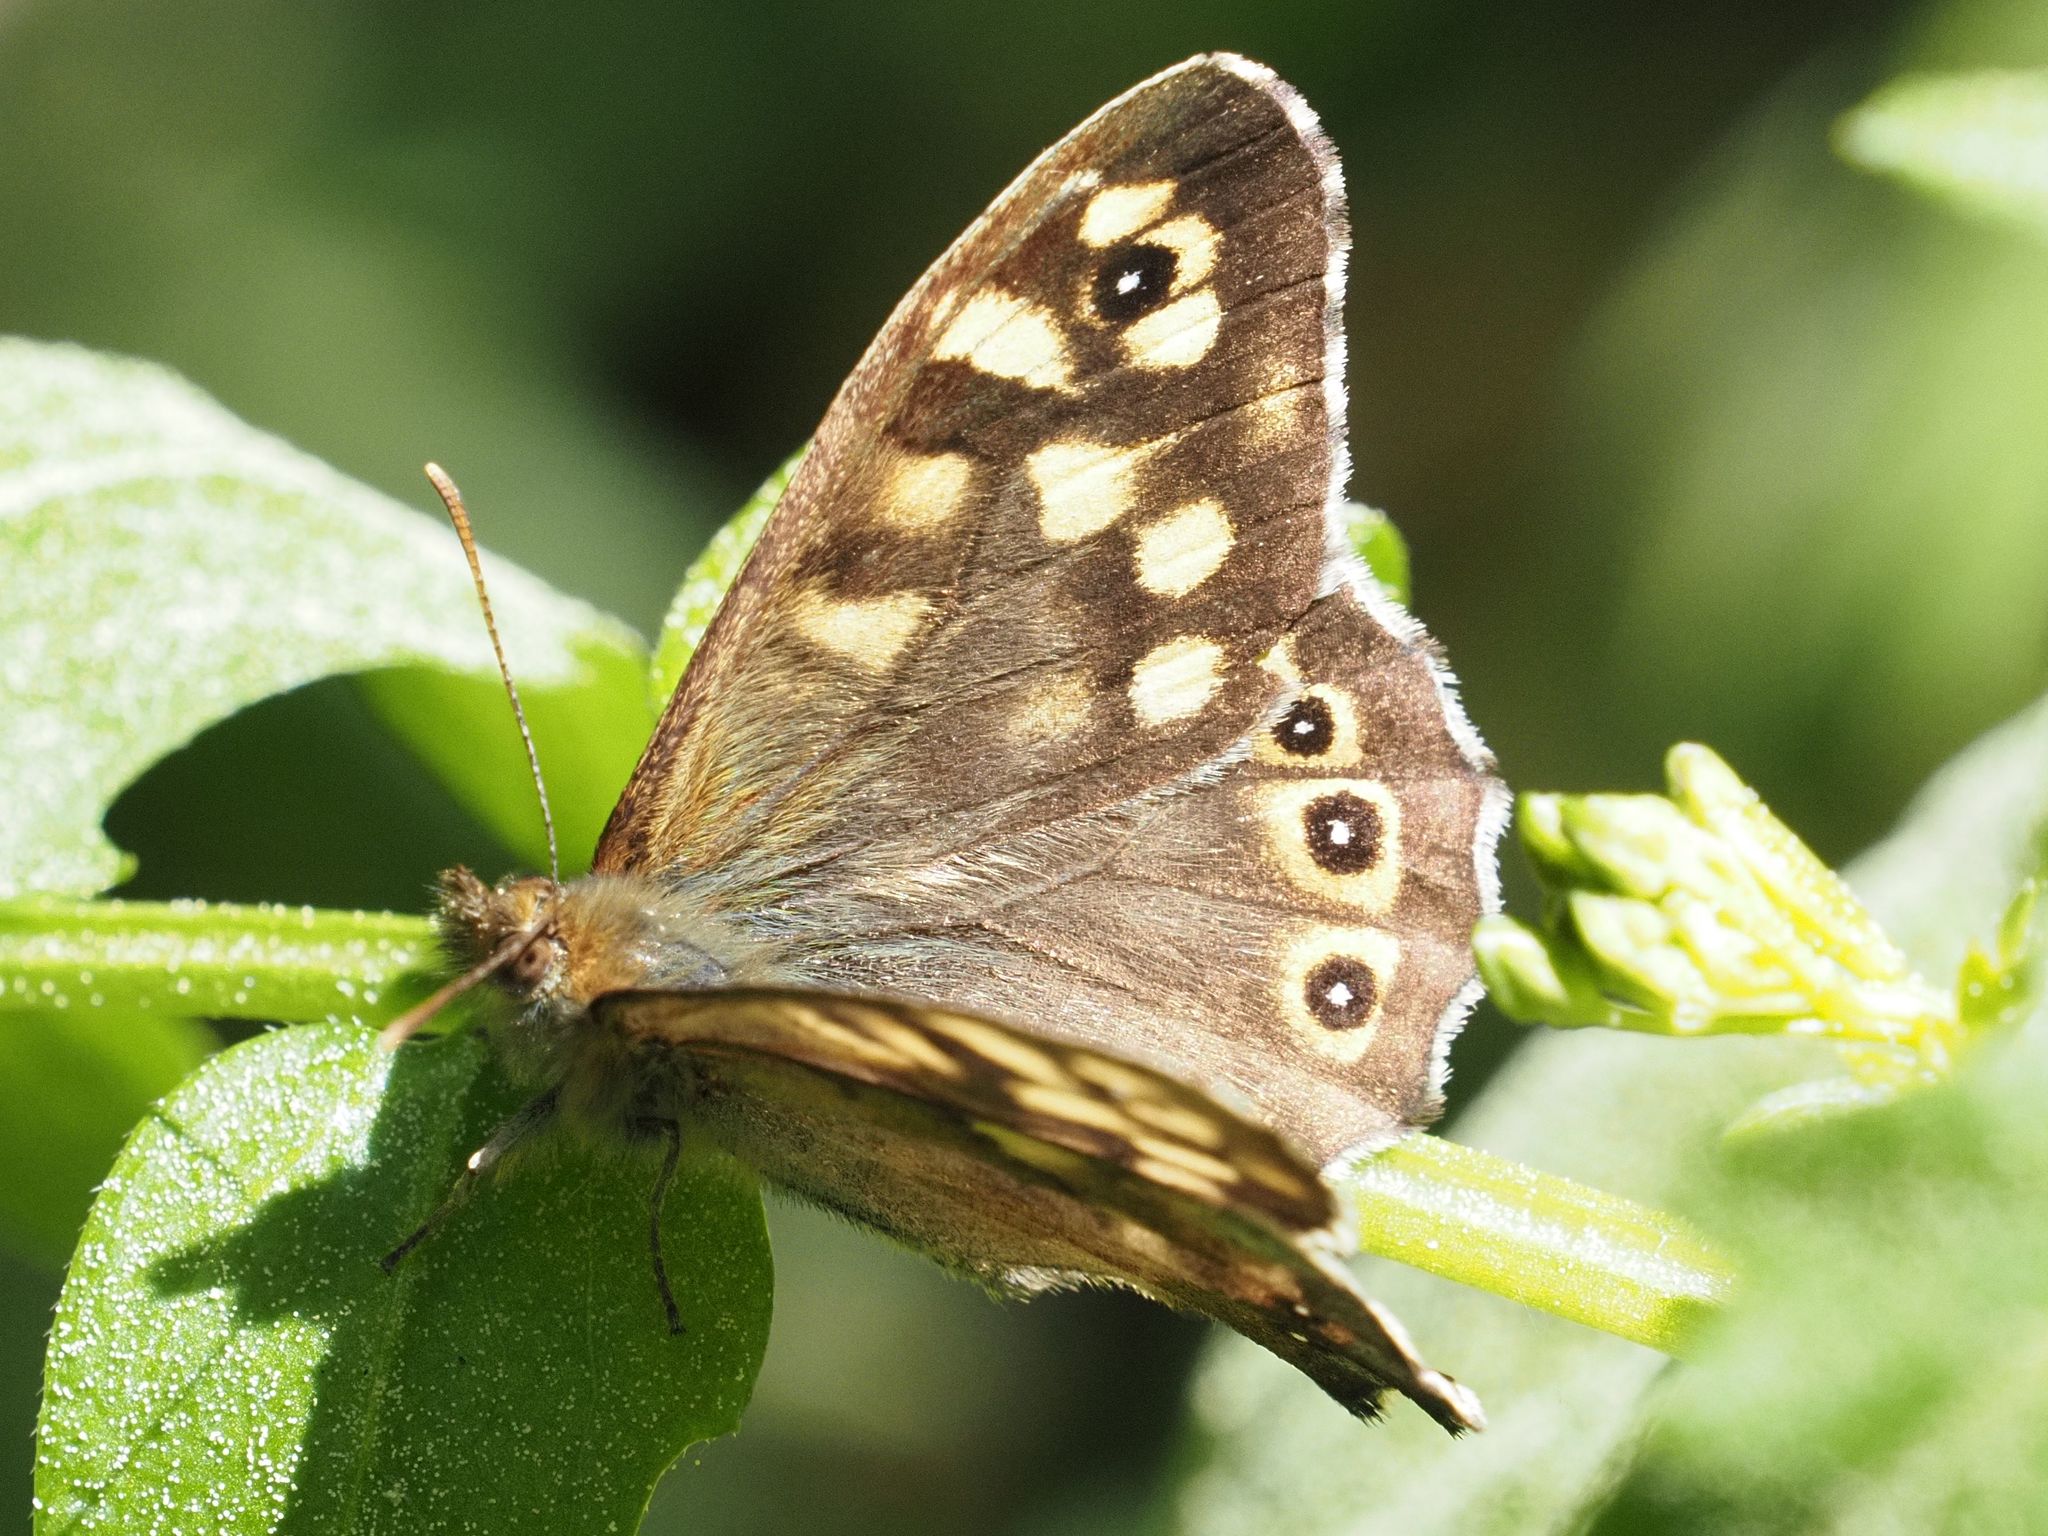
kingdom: Animalia
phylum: Arthropoda
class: Insecta
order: Lepidoptera
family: Nymphalidae
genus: Pararge
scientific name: Pararge aegeria
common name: Speckled wood
